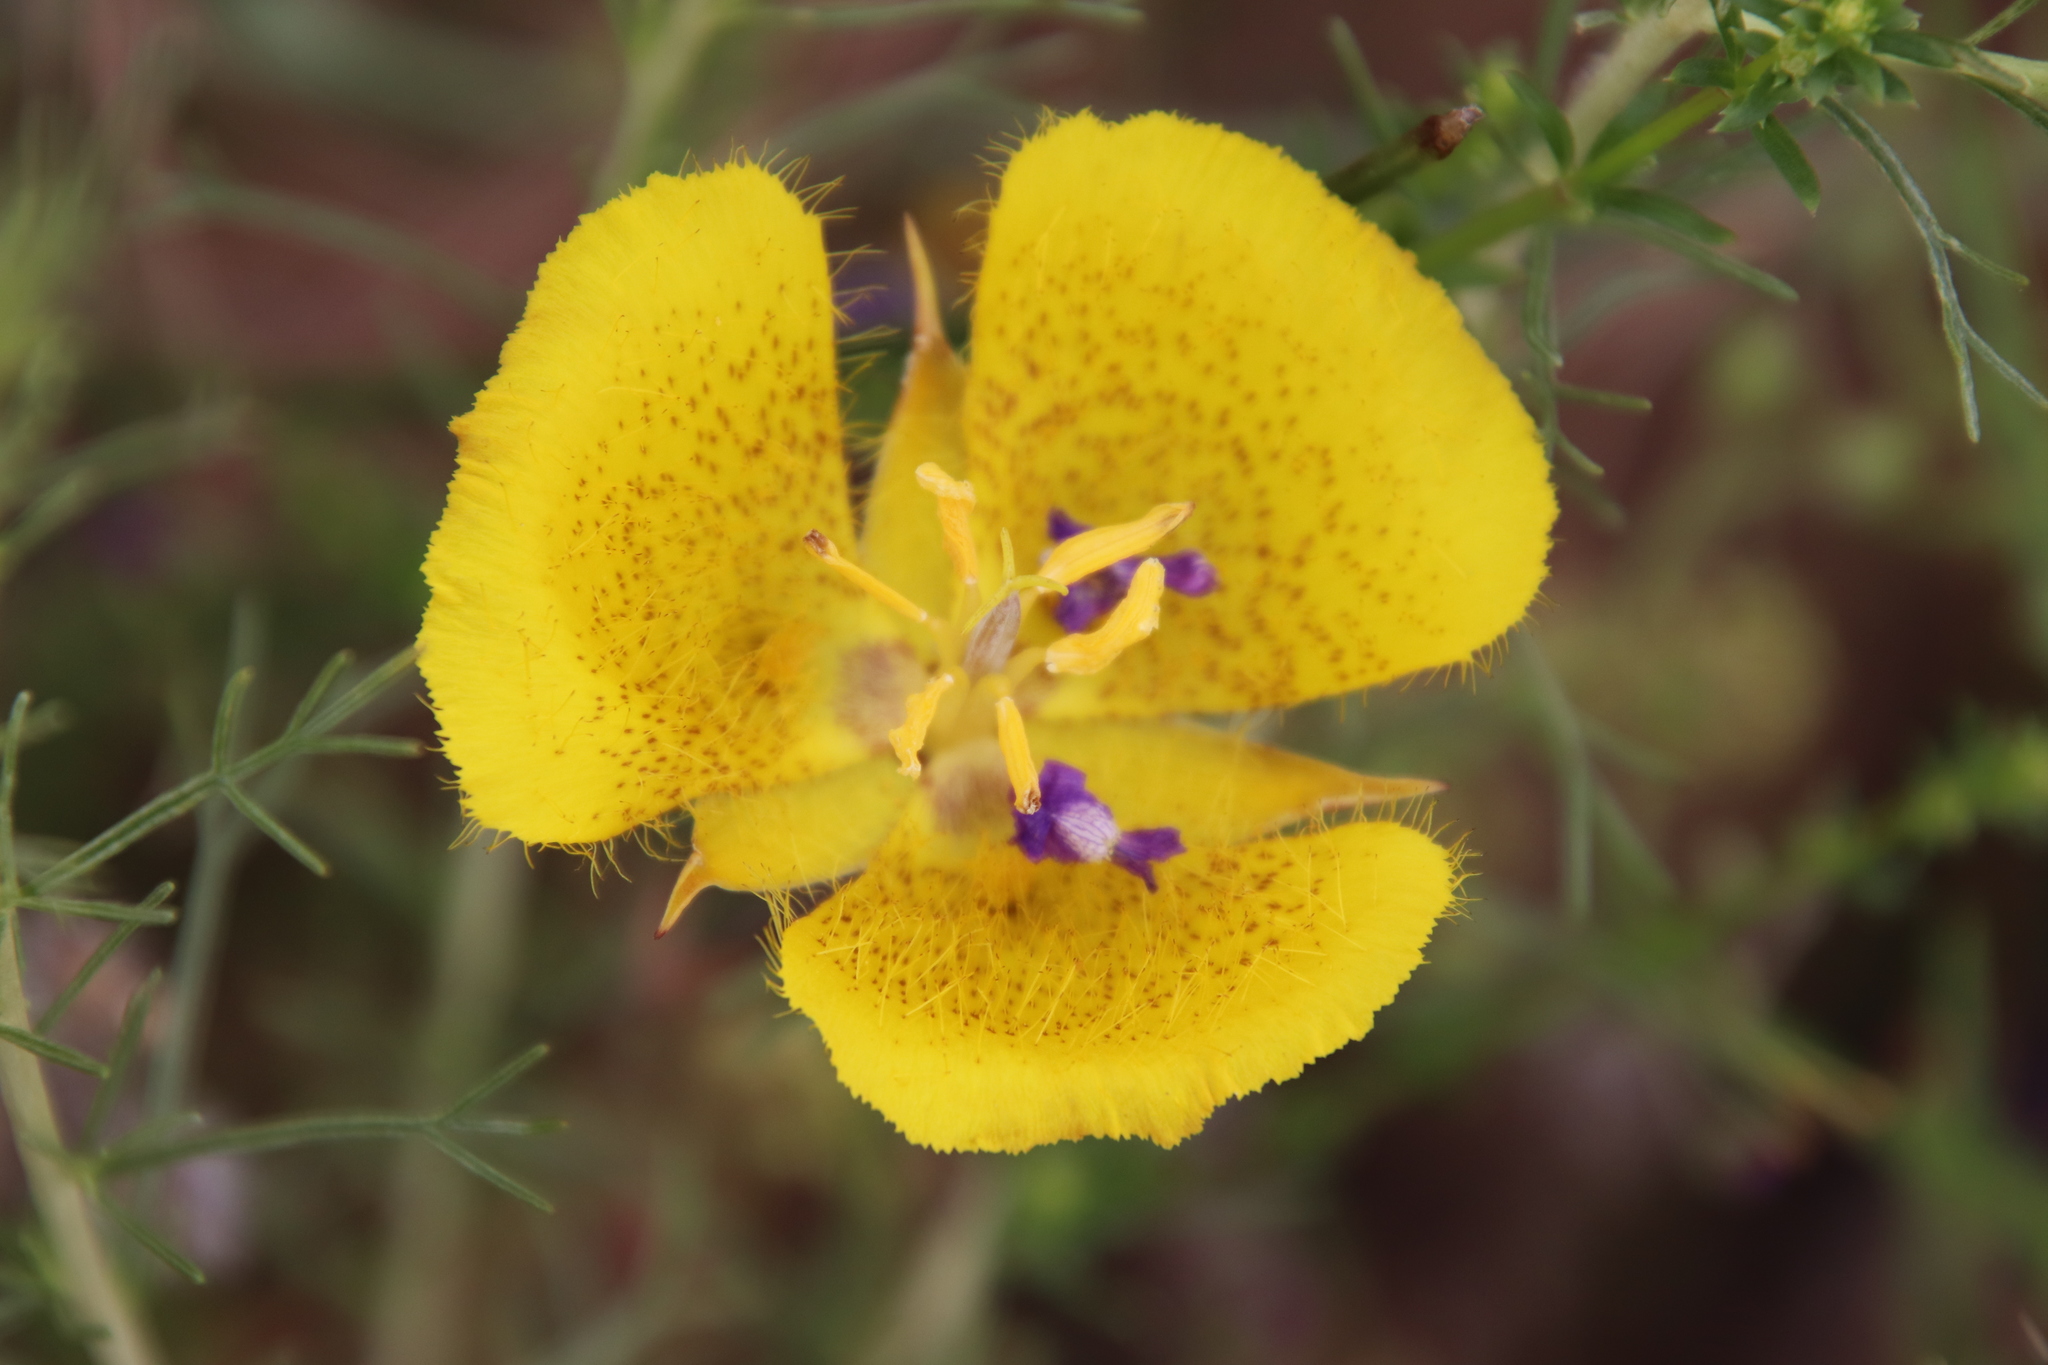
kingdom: Plantae
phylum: Tracheophyta
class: Liliopsida
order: Liliales
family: Liliaceae
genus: Calochortus
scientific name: Calochortus weedii
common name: Weed's mariposa-lily
